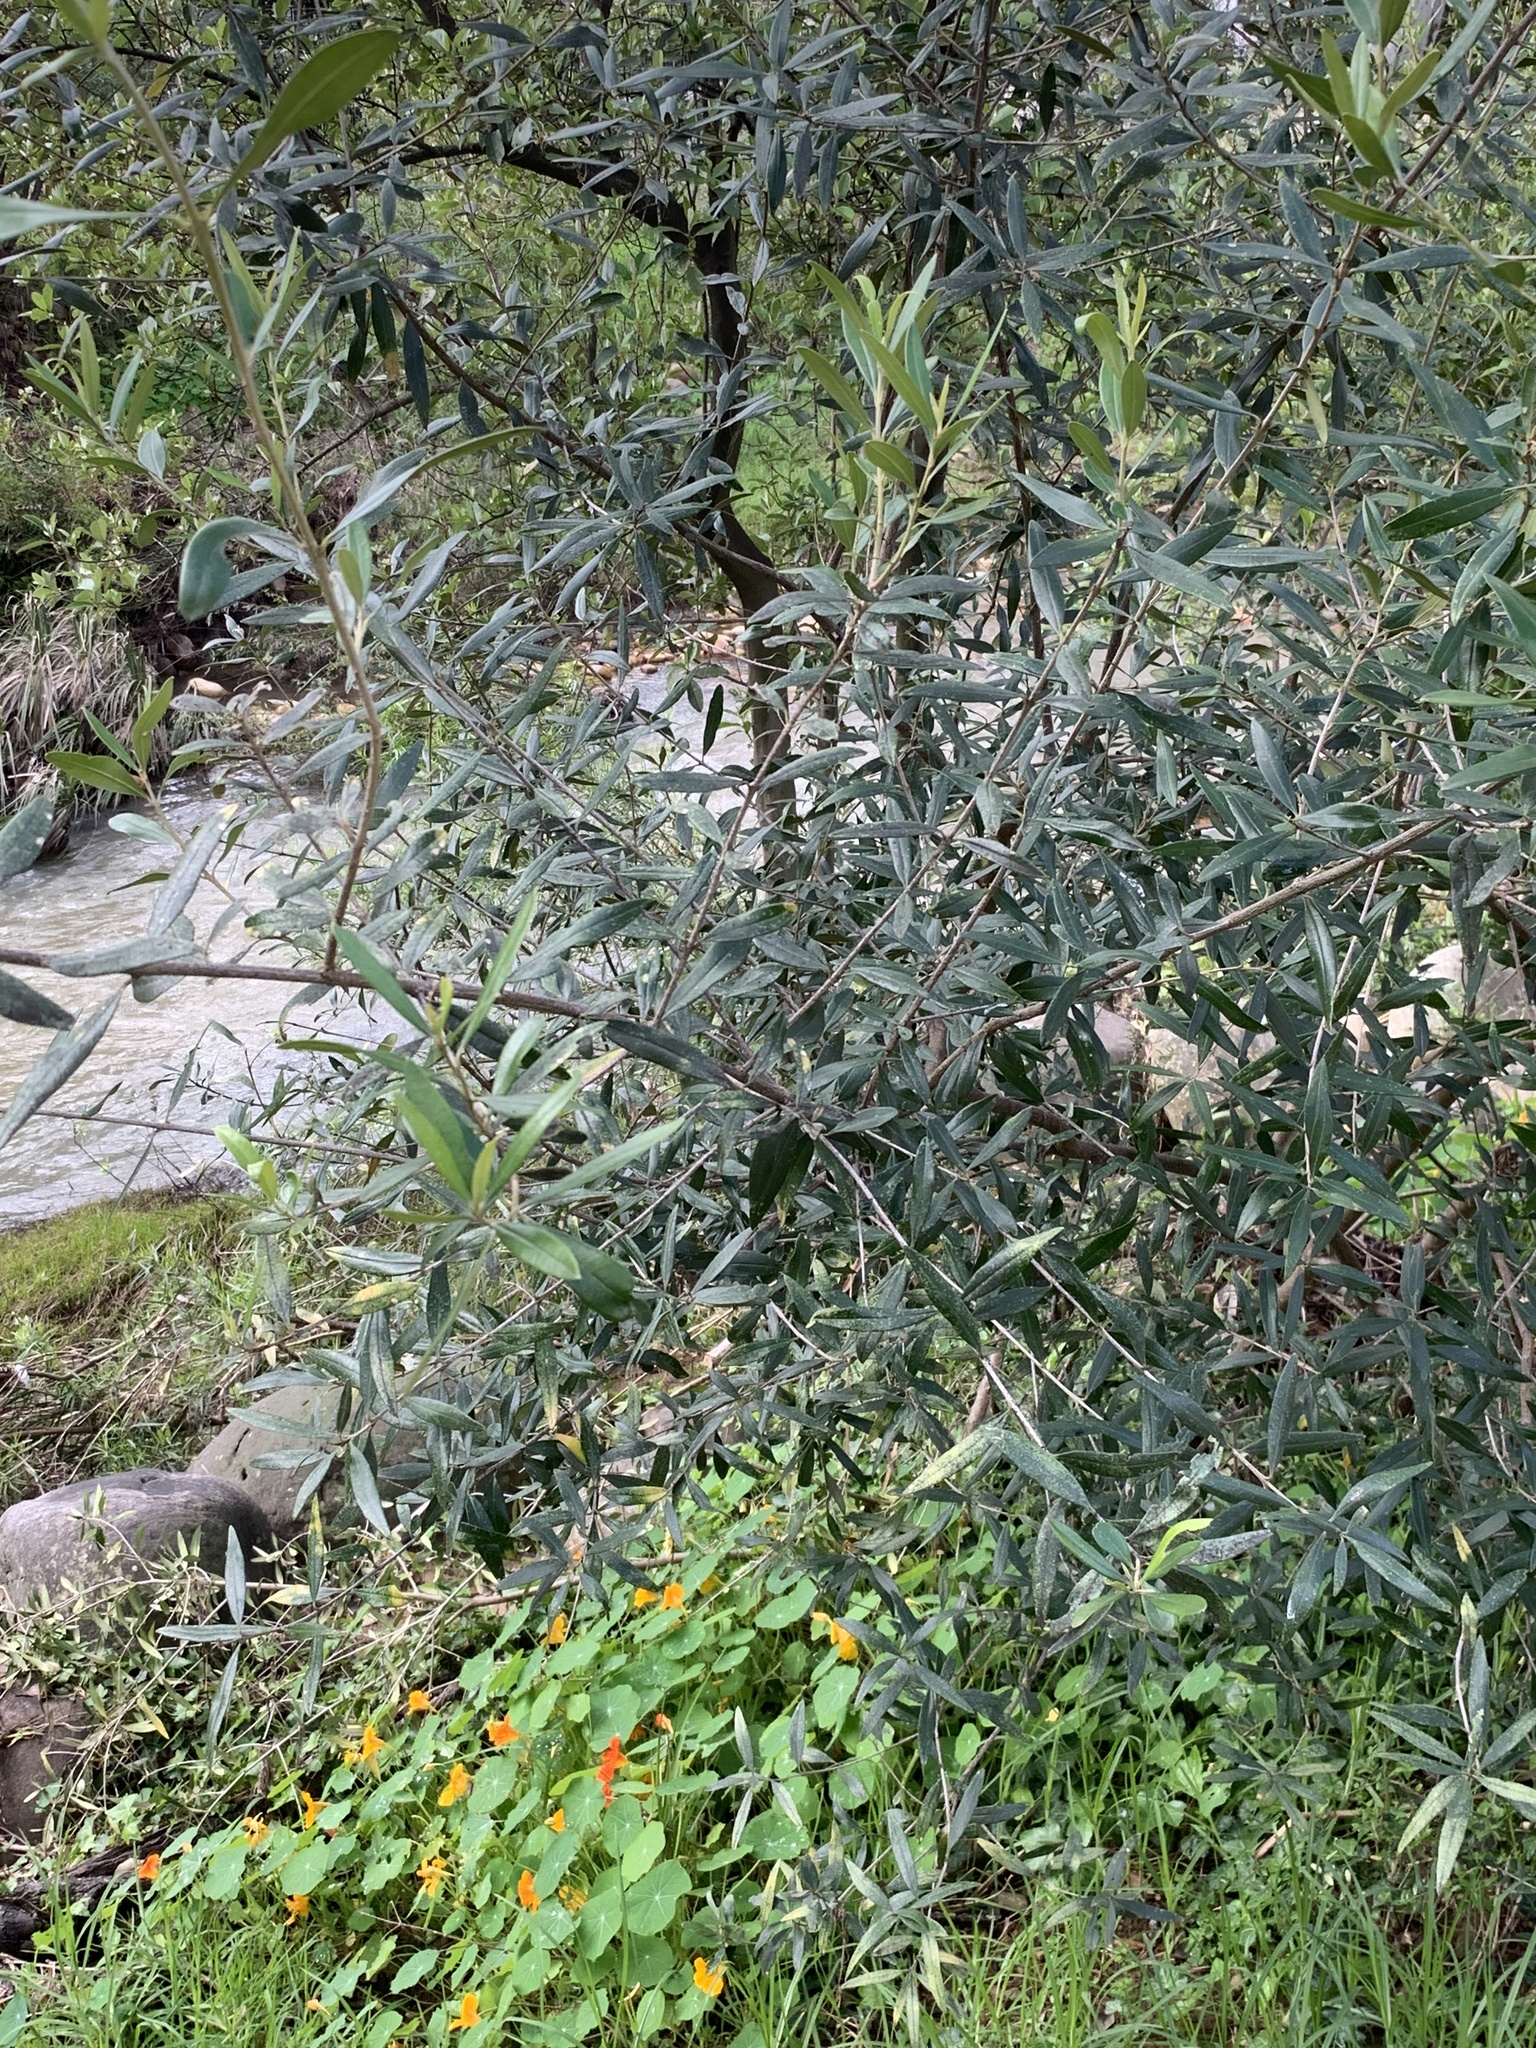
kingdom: Plantae
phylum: Tracheophyta
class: Magnoliopsida
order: Lamiales
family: Oleaceae
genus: Olea
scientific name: Olea europaea
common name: Olive
